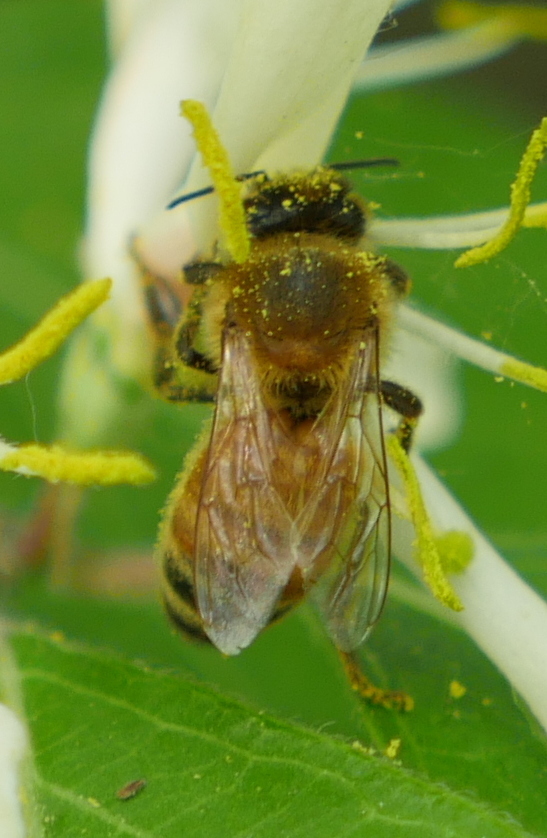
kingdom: Animalia
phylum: Arthropoda
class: Insecta
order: Hymenoptera
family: Apidae
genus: Apis
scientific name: Apis mellifera
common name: Honey bee
